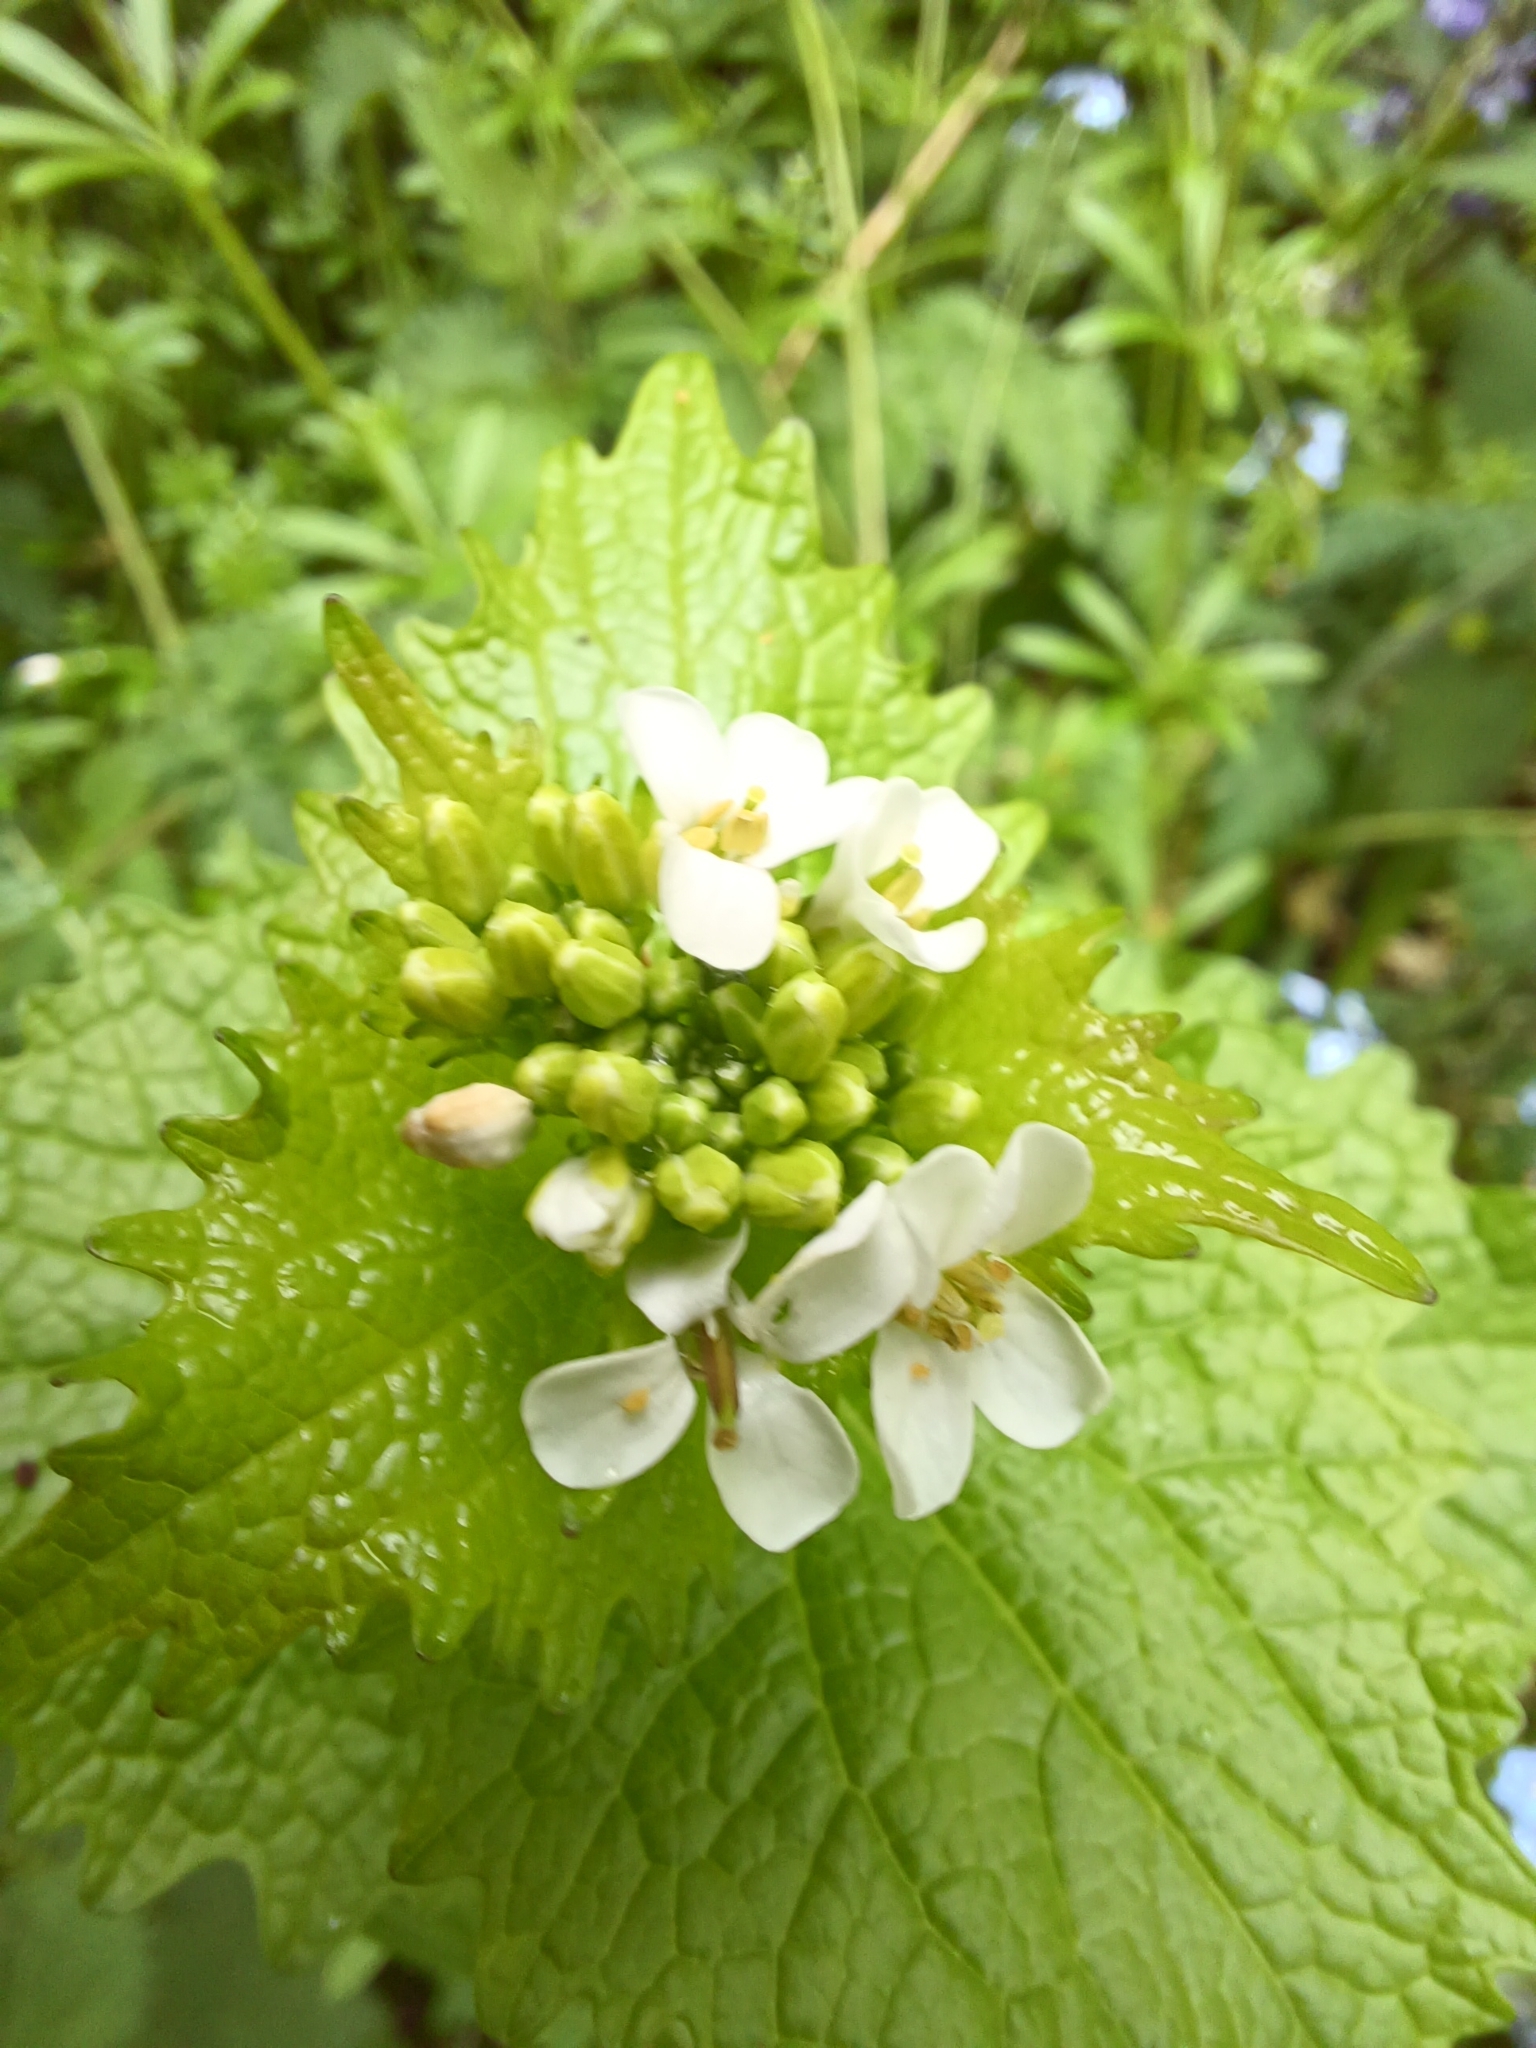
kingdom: Plantae
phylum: Tracheophyta
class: Magnoliopsida
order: Brassicales
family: Brassicaceae
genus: Alliaria
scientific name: Alliaria petiolata
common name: Garlic mustard
